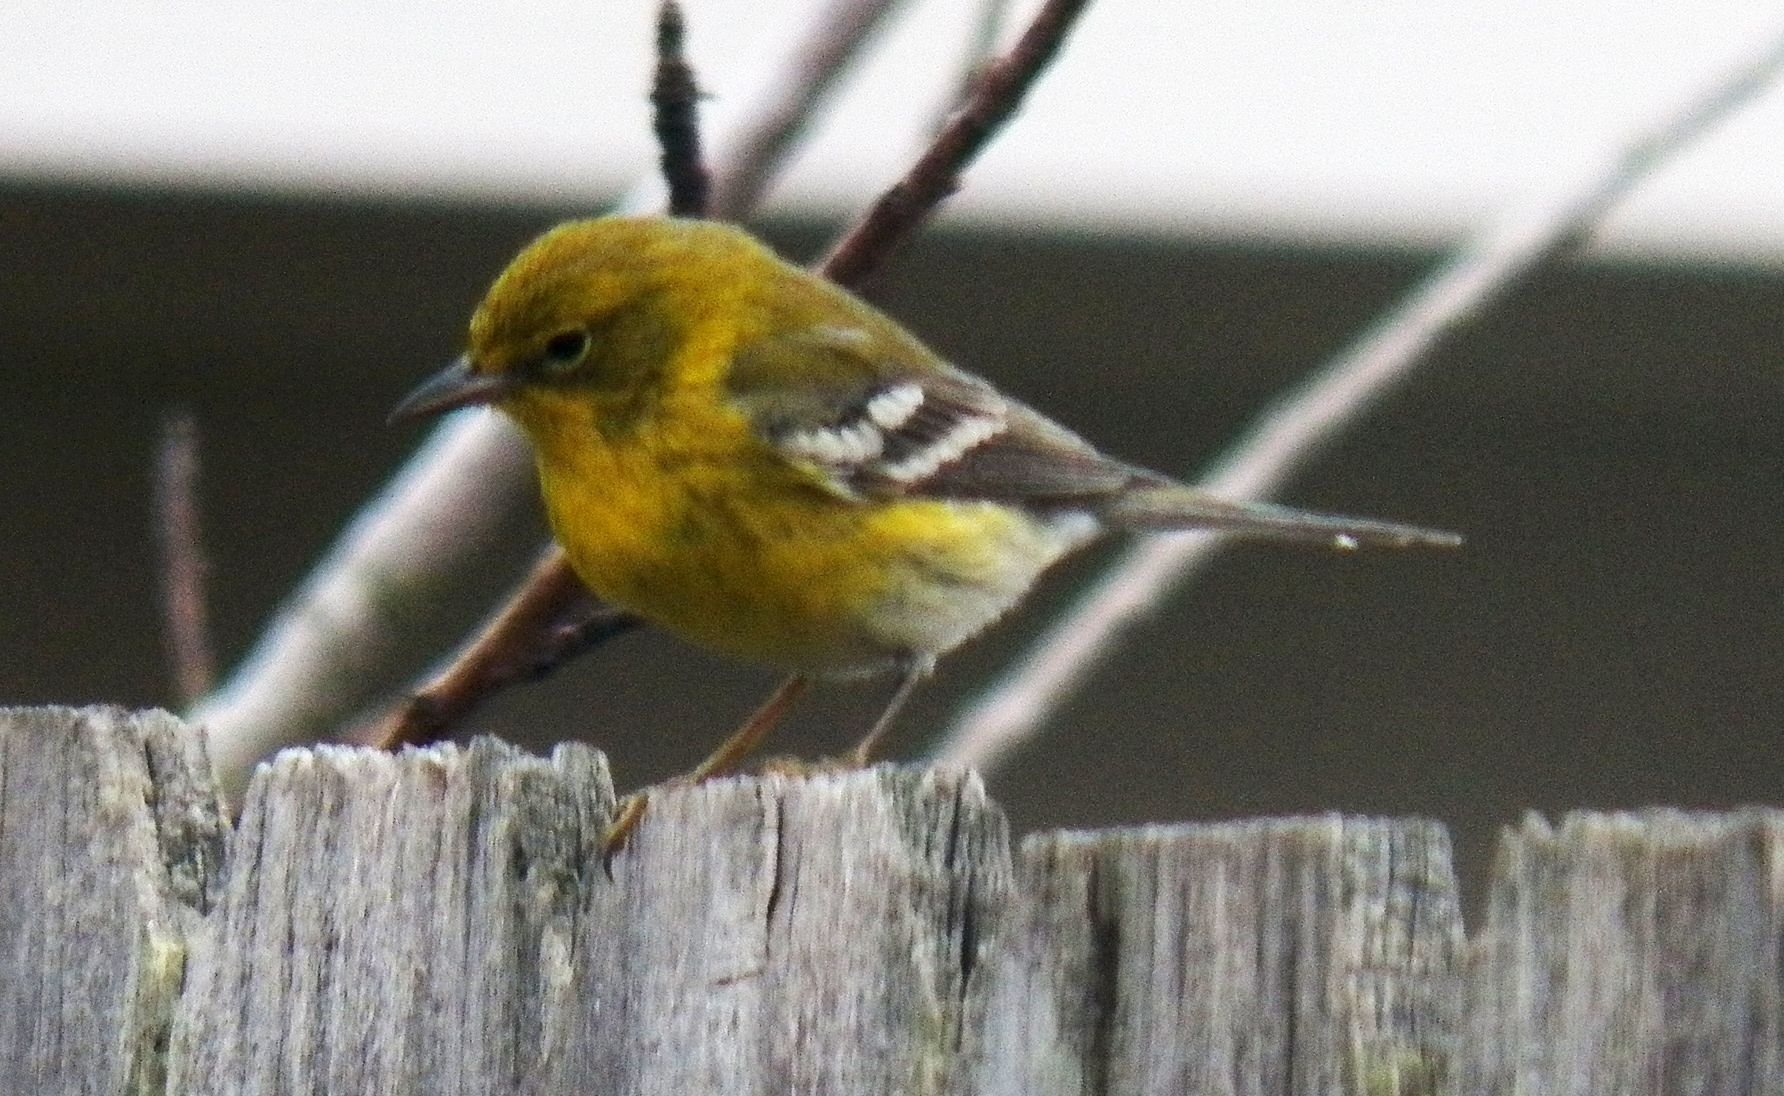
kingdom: Animalia
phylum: Chordata
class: Aves
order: Passeriformes
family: Parulidae
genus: Setophaga
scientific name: Setophaga pinus
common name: Pine warbler
